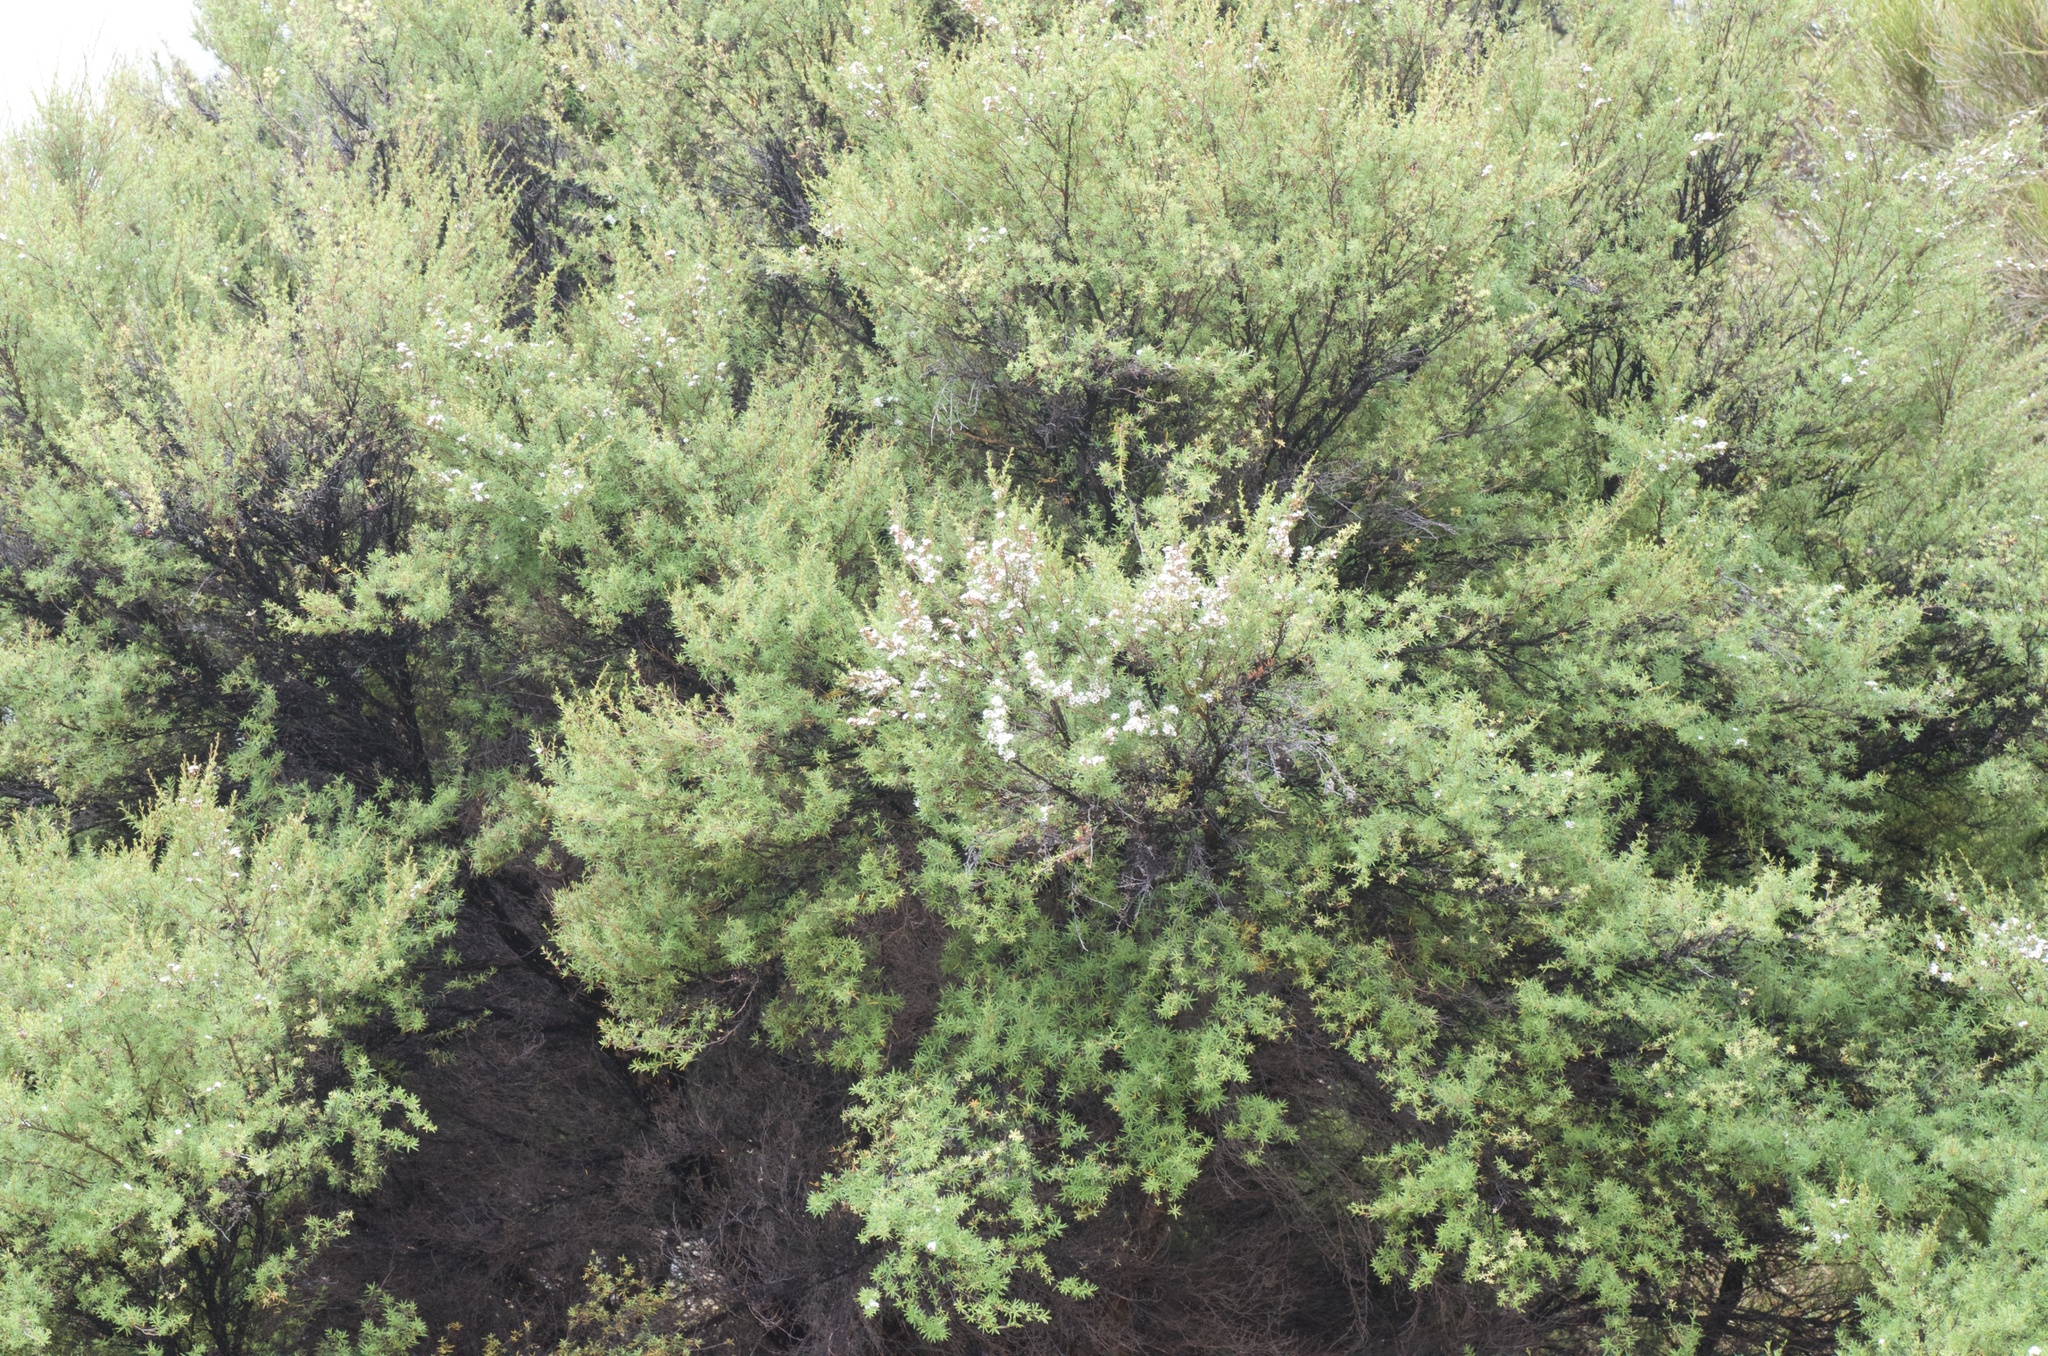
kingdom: Plantae
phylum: Tracheophyta
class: Magnoliopsida
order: Myrtales
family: Myrtaceae
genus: Kunzea
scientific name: Kunzea robusta
